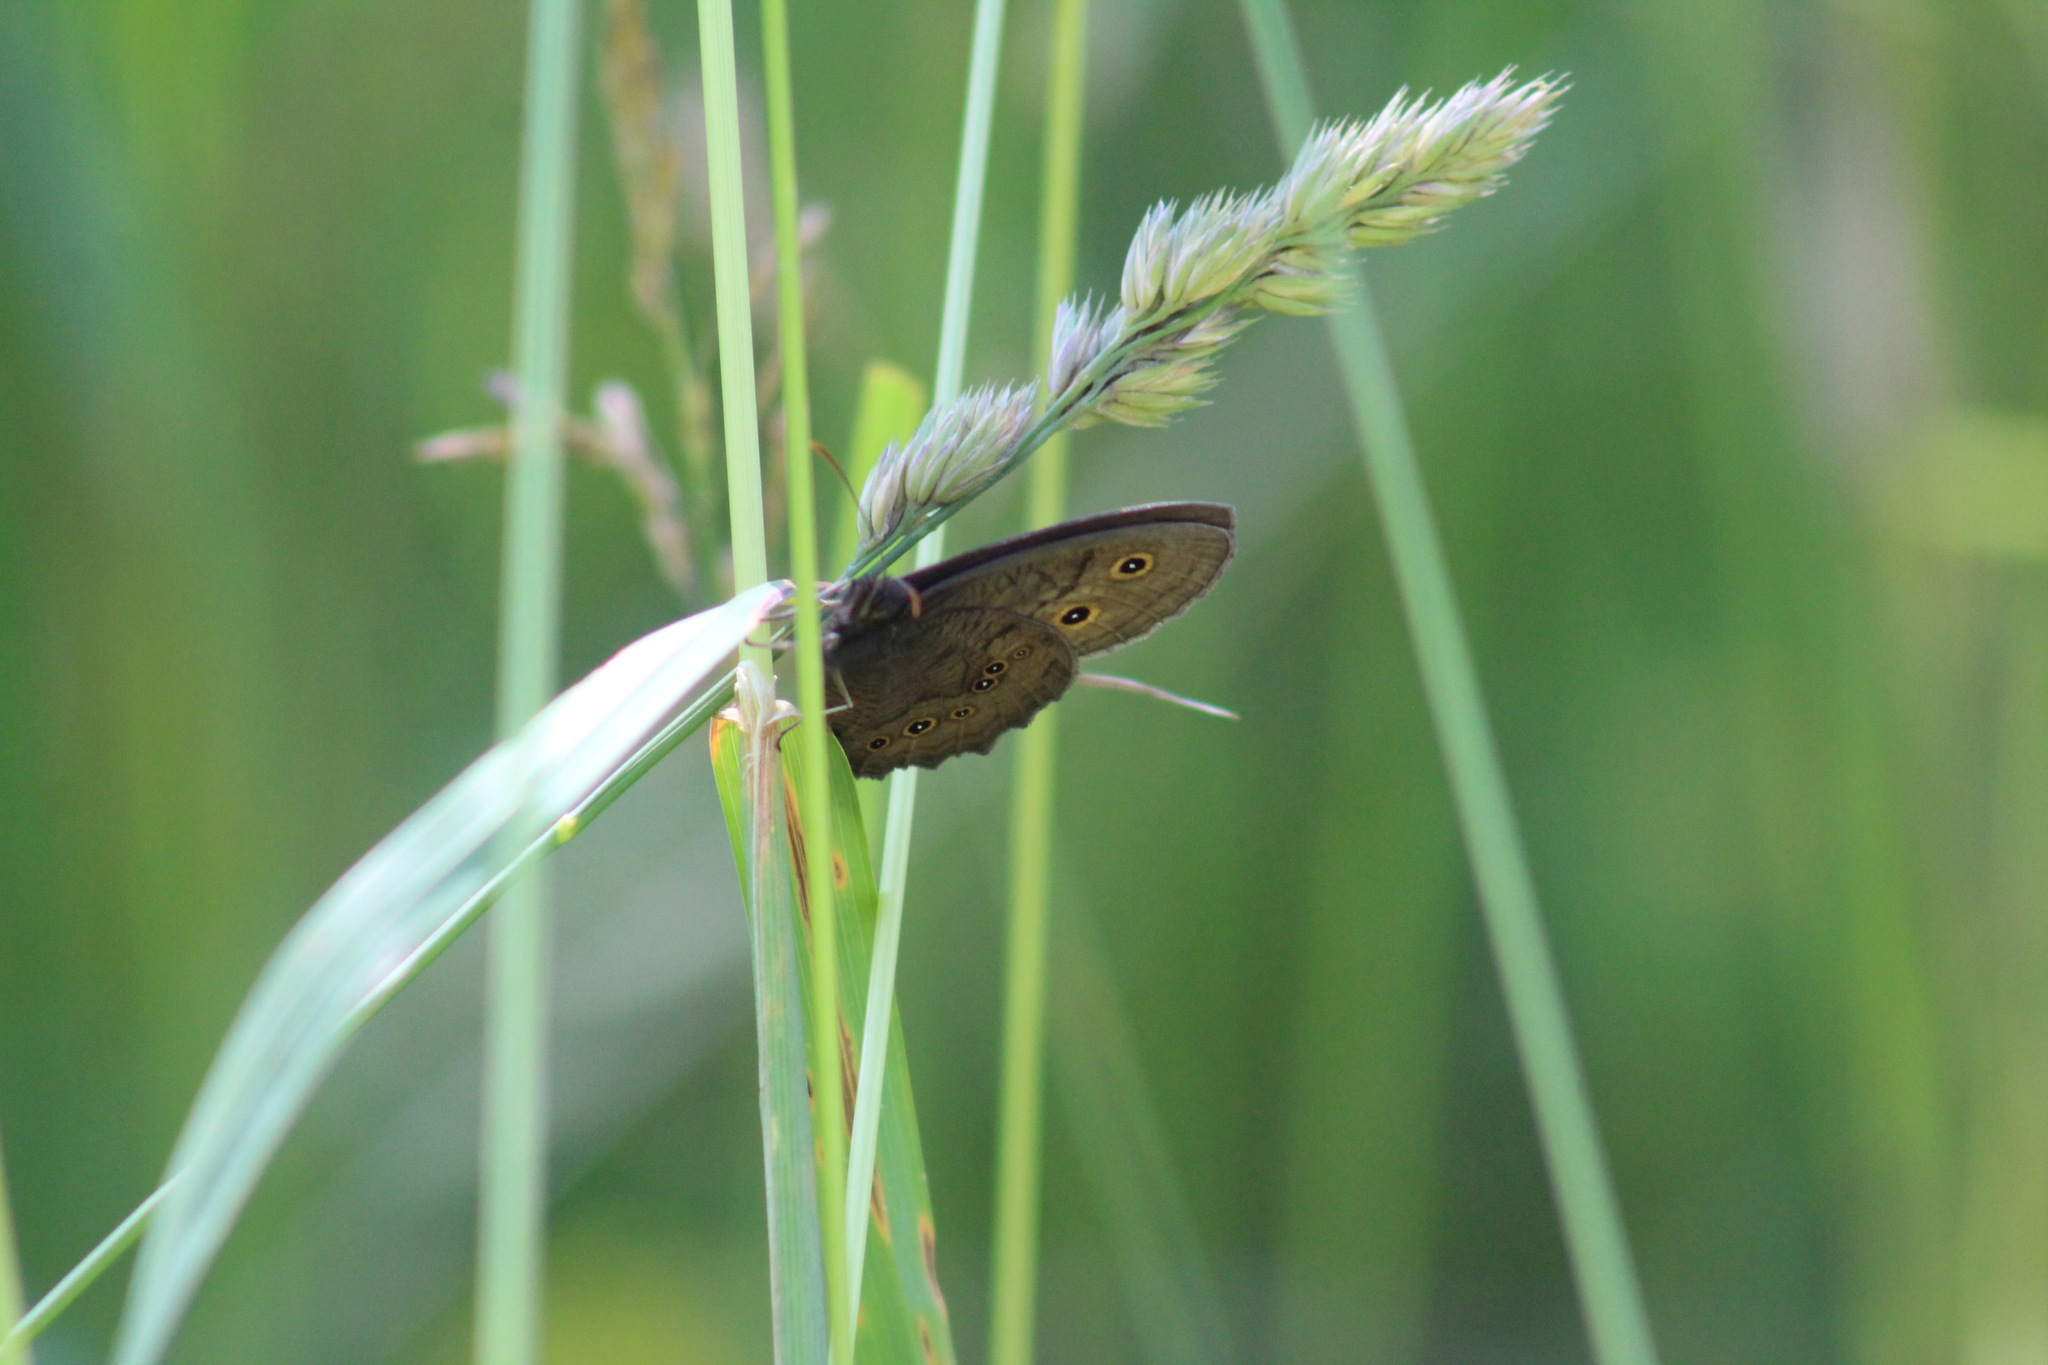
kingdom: Animalia
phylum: Arthropoda
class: Insecta
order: Lepidoptera
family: Nymphalidae
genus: Cercyonis
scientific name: Cercyonis pegala
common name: Common wood-nymph
